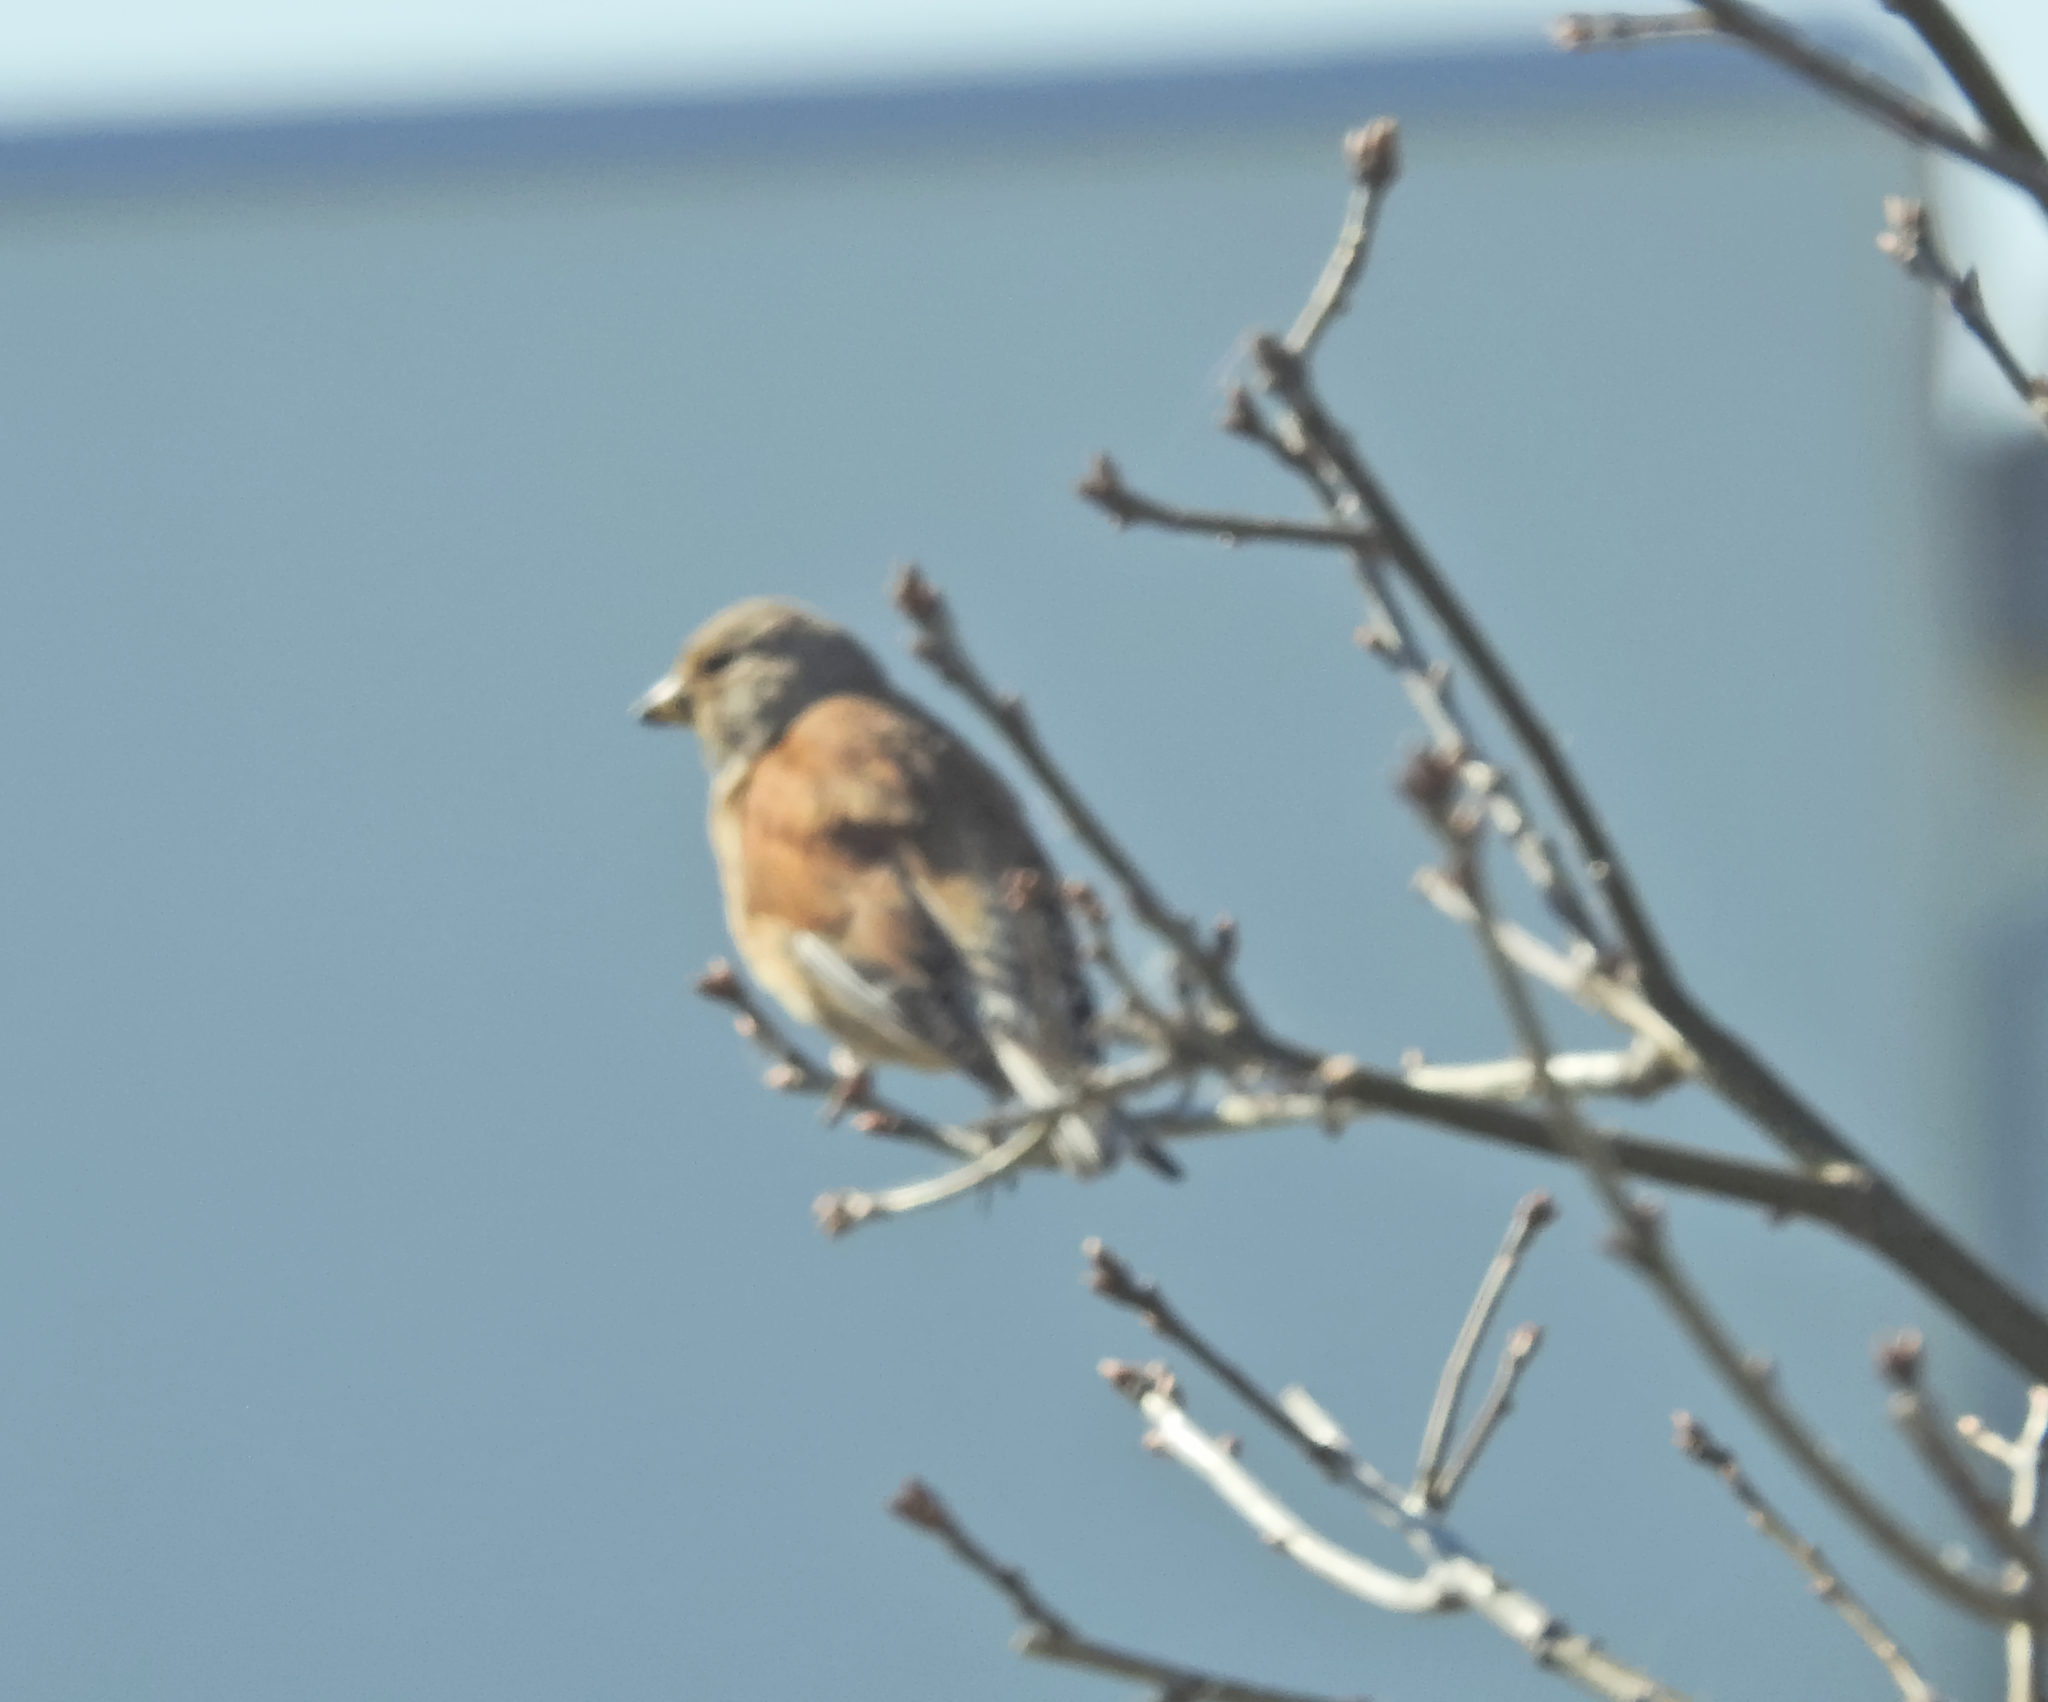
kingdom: Animalia
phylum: Chordata
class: Aves
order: Passeriformes
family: Fringillidae
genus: Linaria
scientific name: Linaria cannabina
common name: Common linnet
